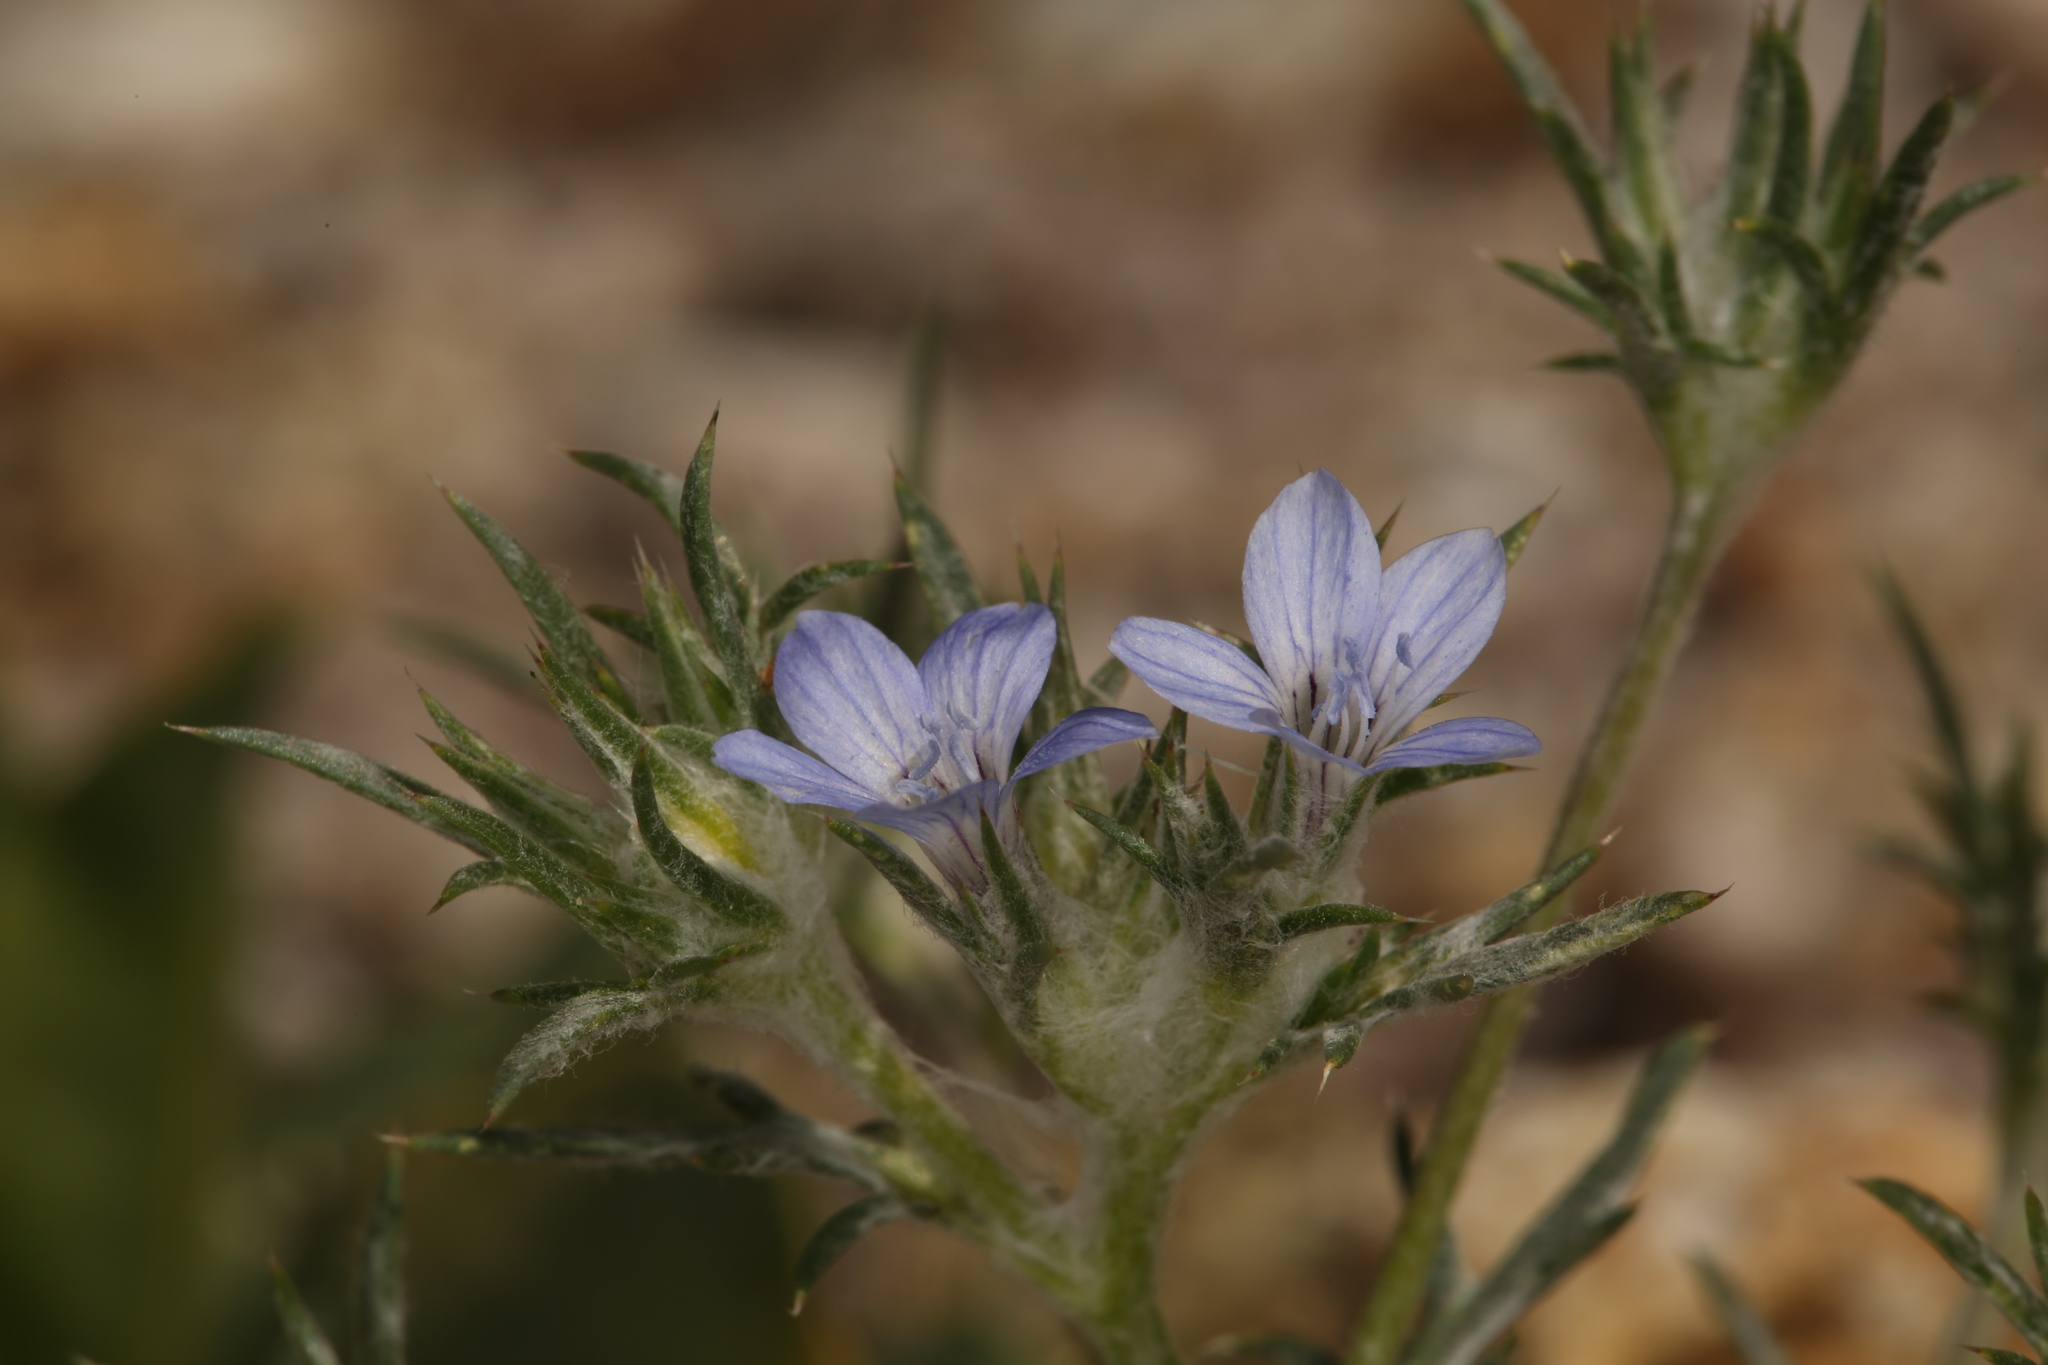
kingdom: Plantae
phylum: Tracheophyta
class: Magnoliopsida
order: Ericales
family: Polemoniaceae
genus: Eriastrum
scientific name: Eriastrum wilcoxii
